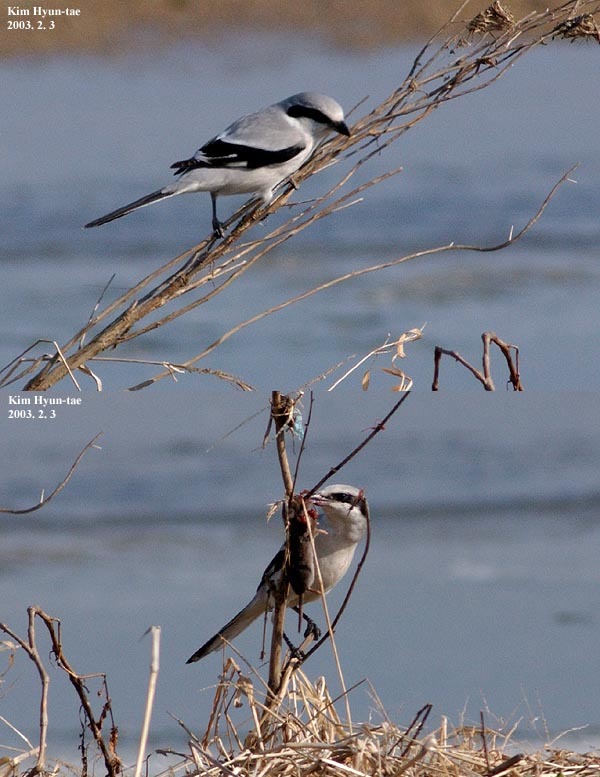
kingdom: Animalia
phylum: Chordata
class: Aves
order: Passeriformes
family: Laniidae
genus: Lanius
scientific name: Lanius sphenocercus
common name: Chinese grey shrike
